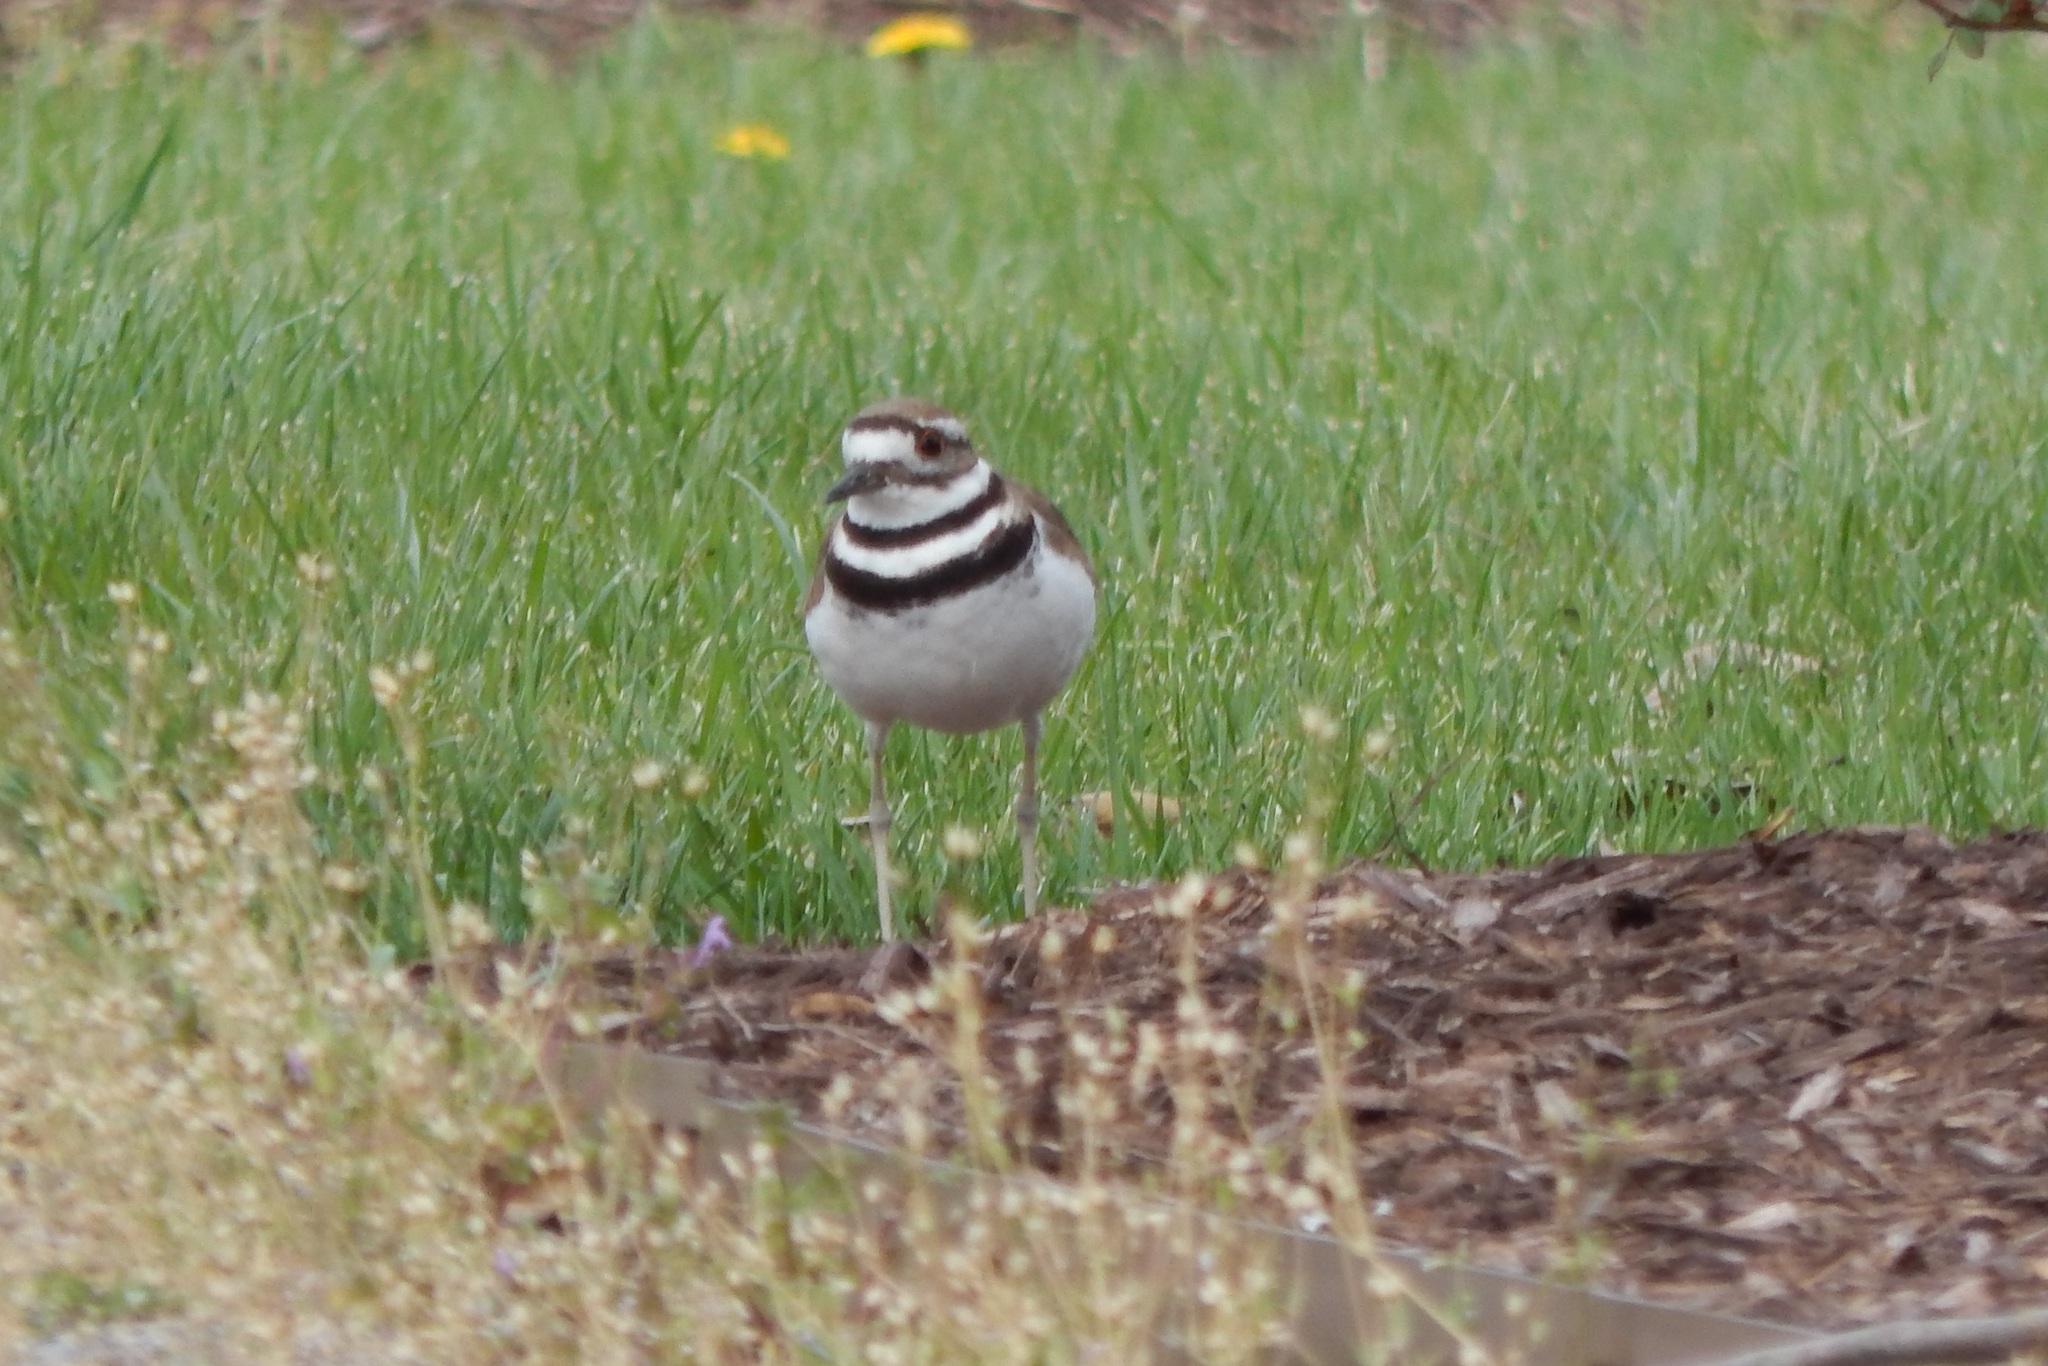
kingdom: Animalia
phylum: Chordata
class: Aves
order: Charadriiformes
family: Charadriidae
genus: Charadrius
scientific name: Charadrius vociferus
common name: Killdeer
